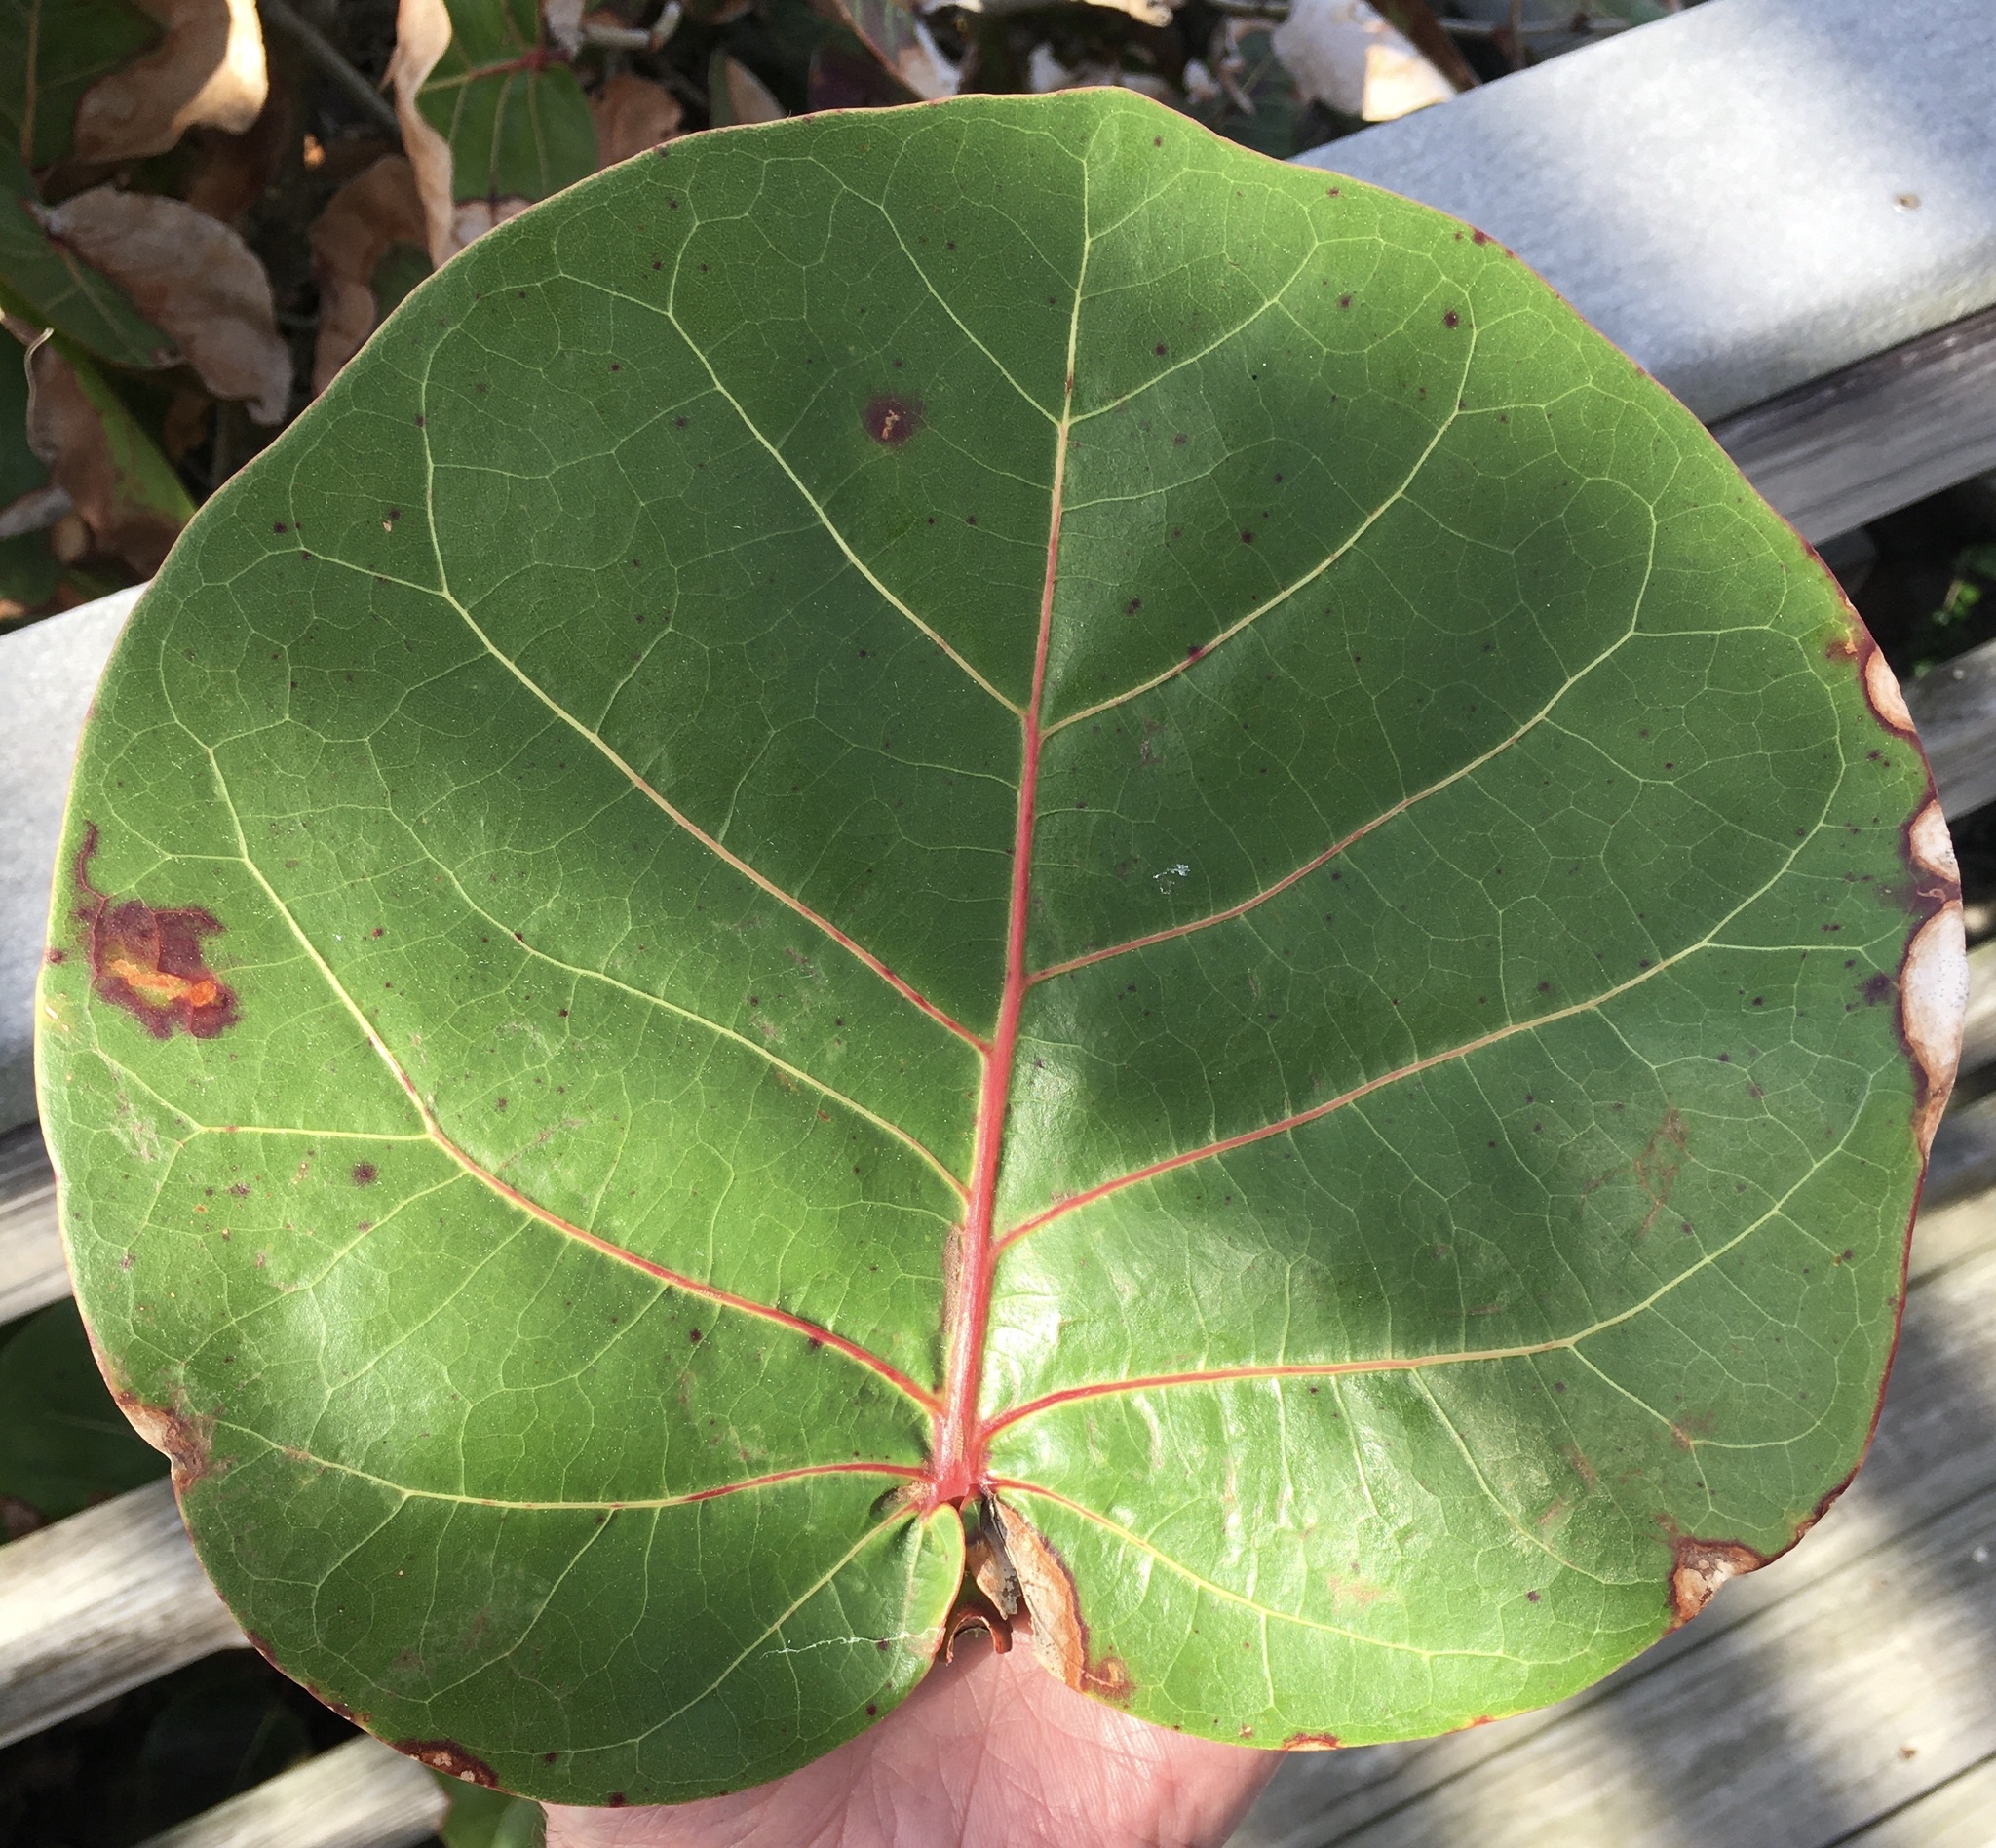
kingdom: Plantae
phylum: Tracheophyta
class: Magnoliopsida
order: Caryophyllales
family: Polygonaceae
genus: Coccoloba
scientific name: Coccoloba uvifera
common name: Seagrape
